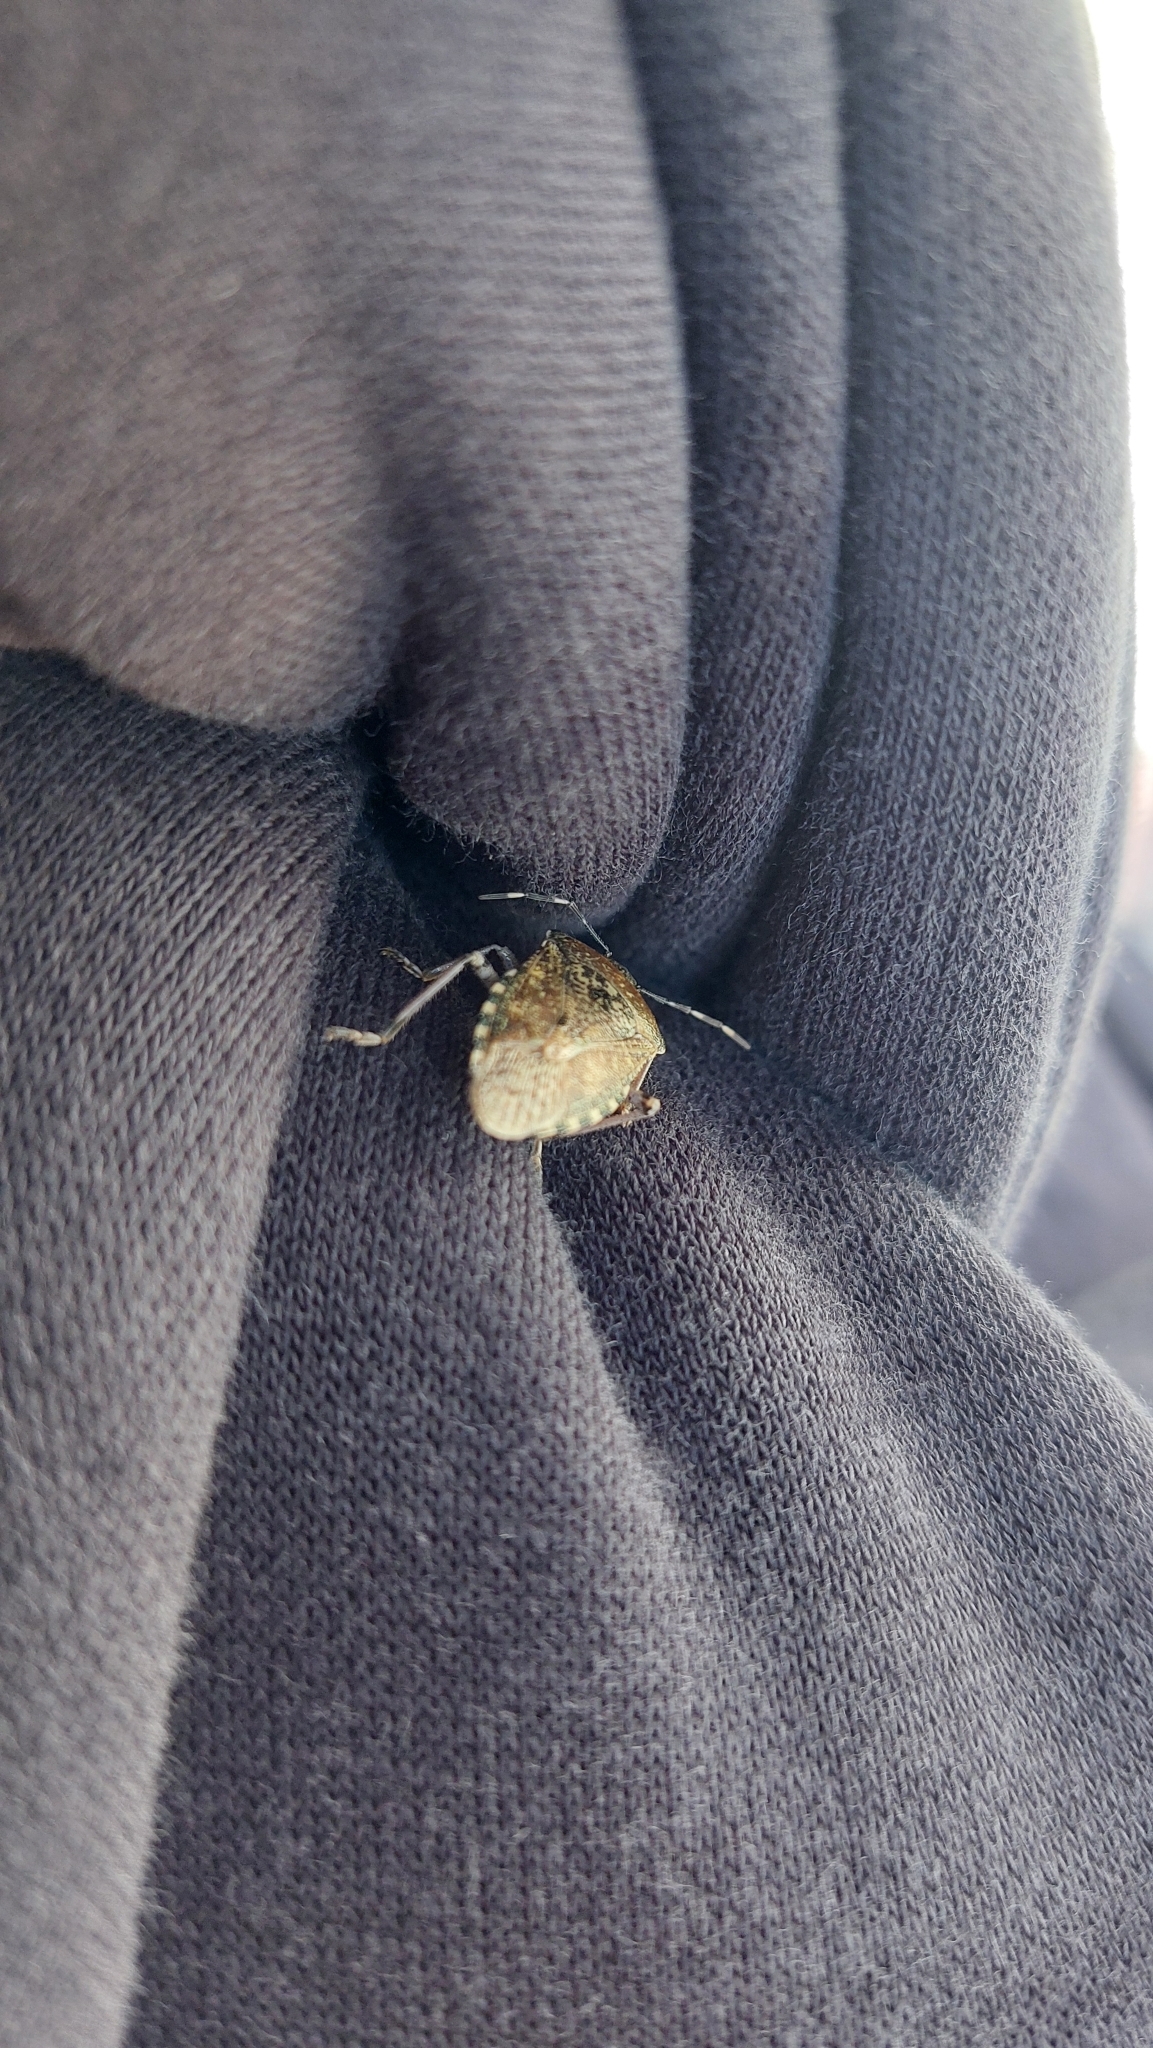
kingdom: Animalia
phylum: Arthropoda
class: Insecta
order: Hemiptera
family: Pentatomidae
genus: Rhaphigaster
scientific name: Rhaphigaster nebulosa
